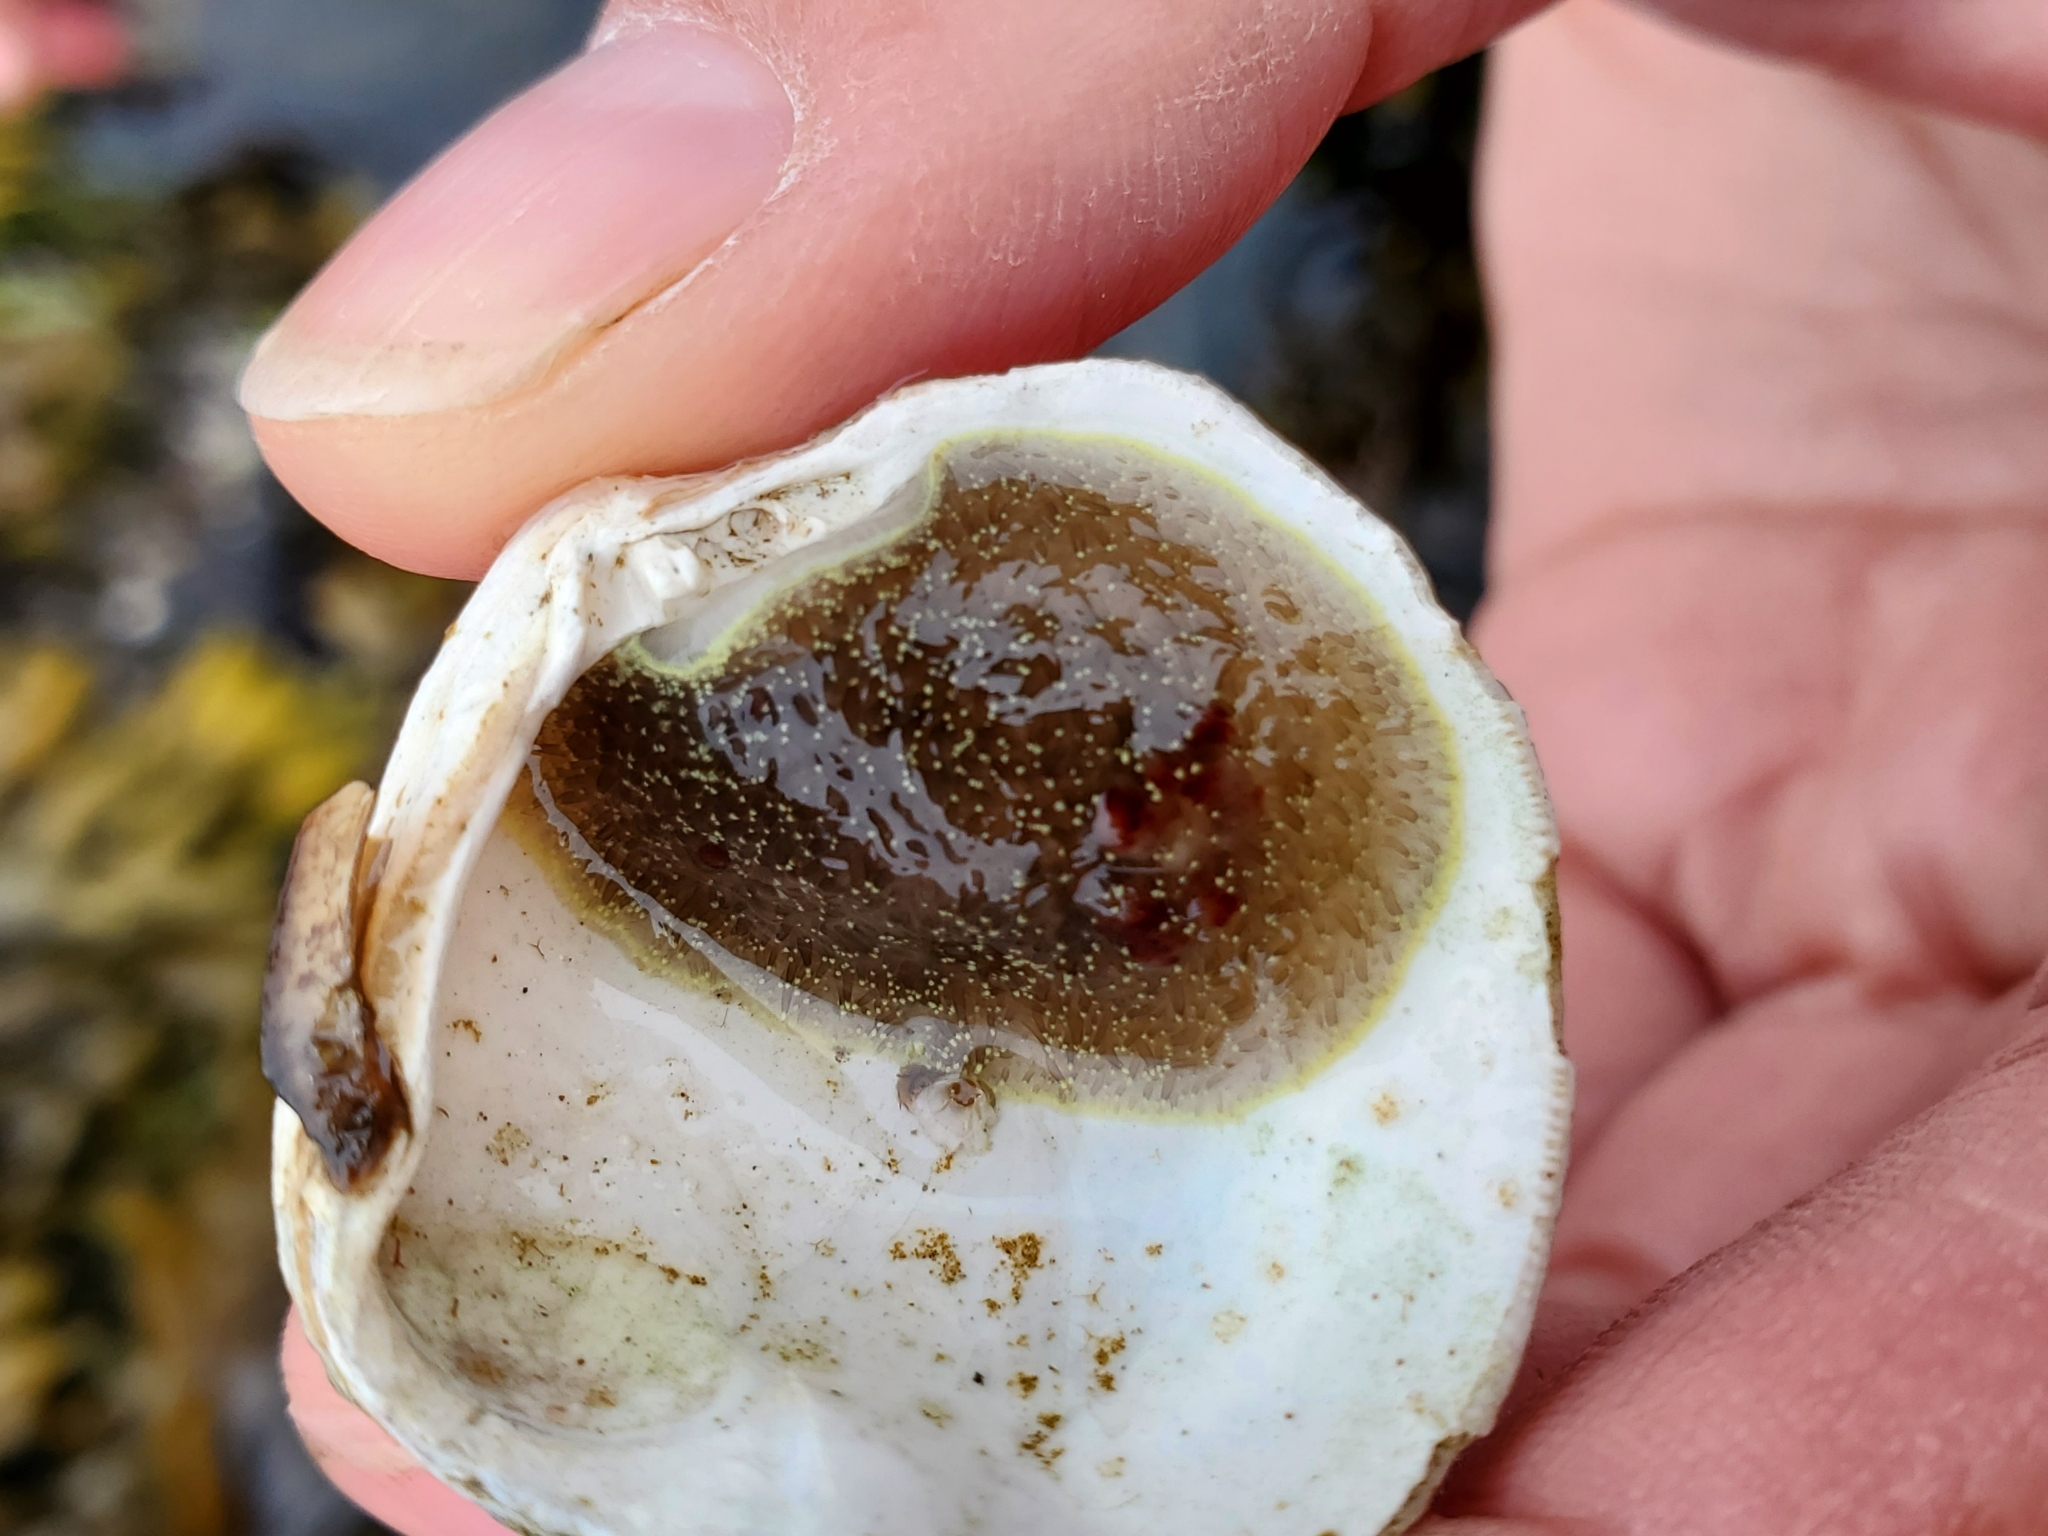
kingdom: Animalia
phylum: Mollusca
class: Gastropoda
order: Nudibranchia
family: Onchidorididae
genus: Acanthodoris
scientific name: Acanthodoris nanaimoensis
